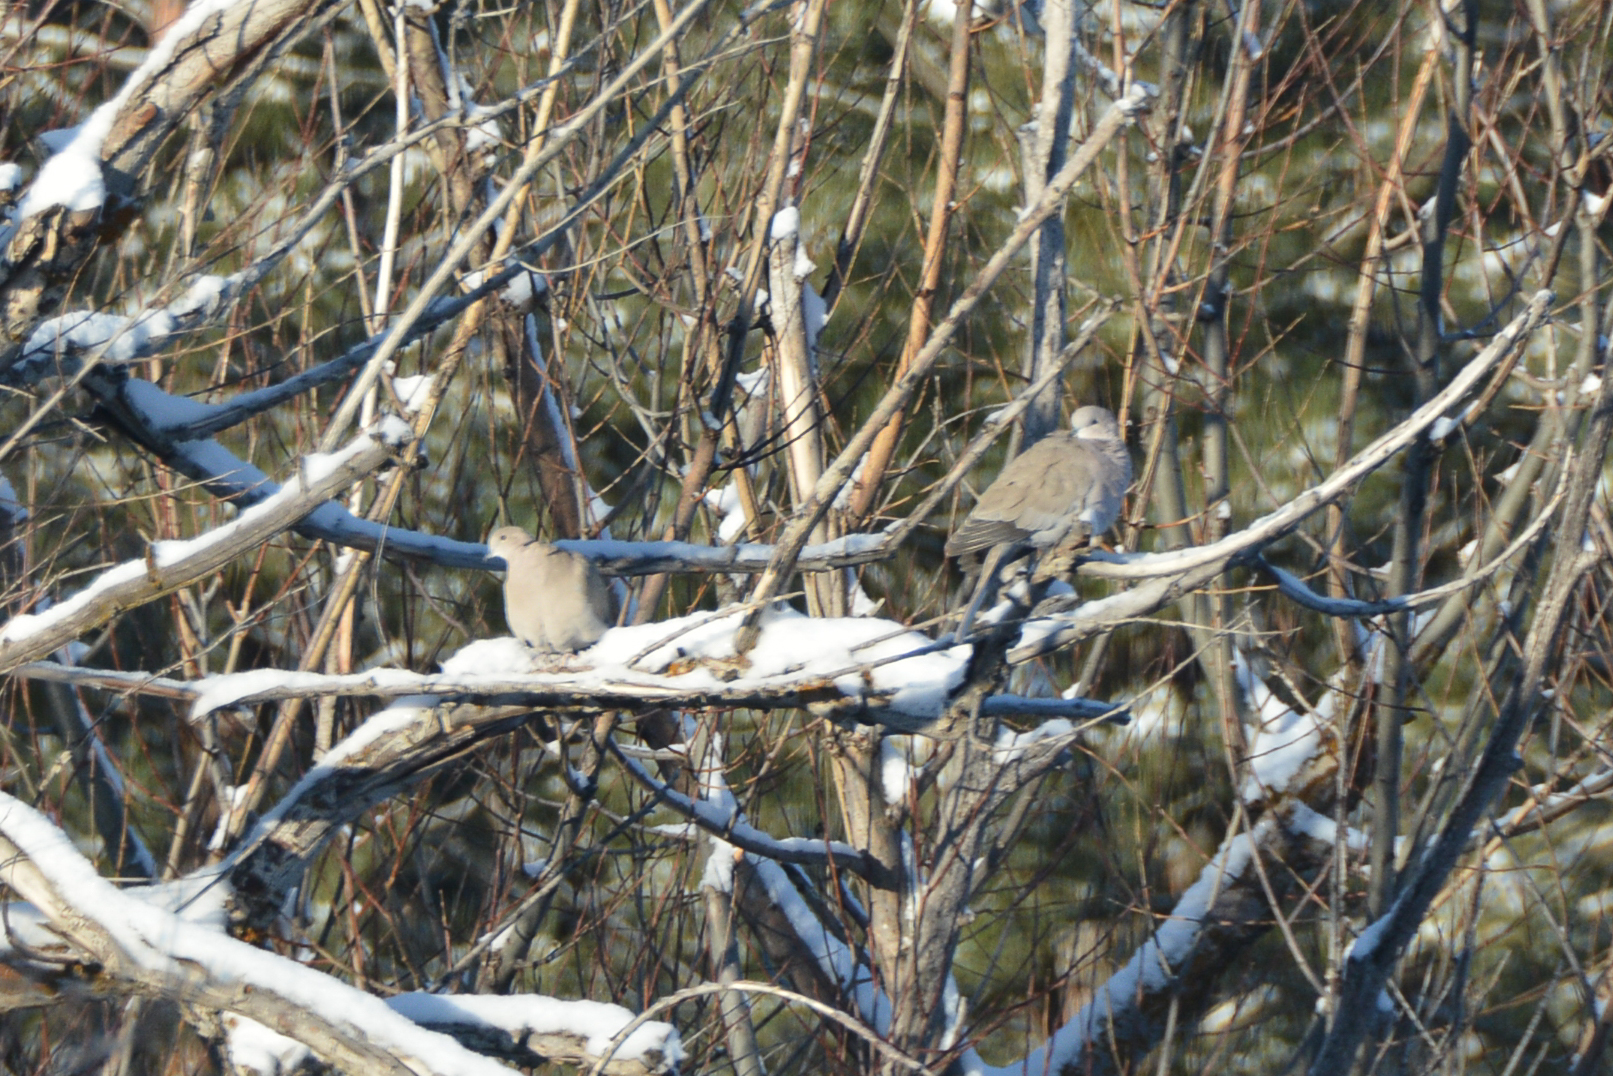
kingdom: Animalia
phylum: Chordata
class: Aves
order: Columbiformes
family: Columbidae
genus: Streptopelia
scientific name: Streptopelia decaocto
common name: Eurasian collared dove
